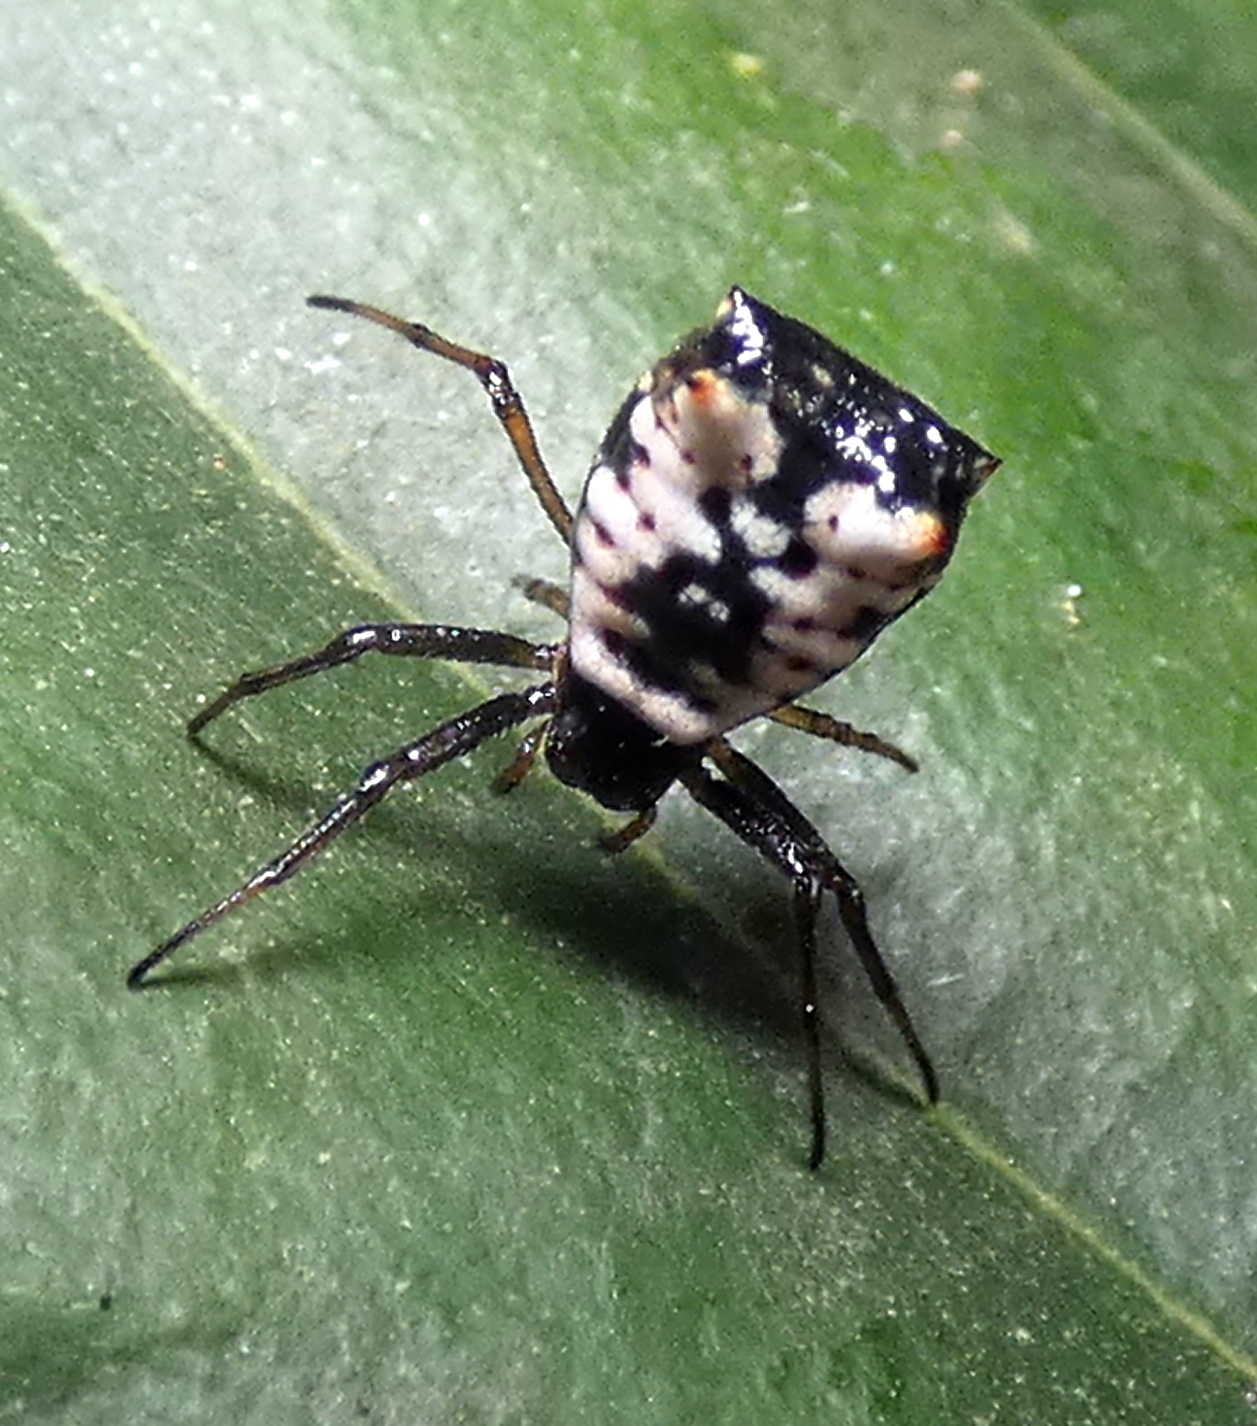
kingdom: Animalia
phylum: Arthropoda
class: Arachnida
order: Araneae
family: Araneidae
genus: Micrathena
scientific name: Micrathena patruelis
